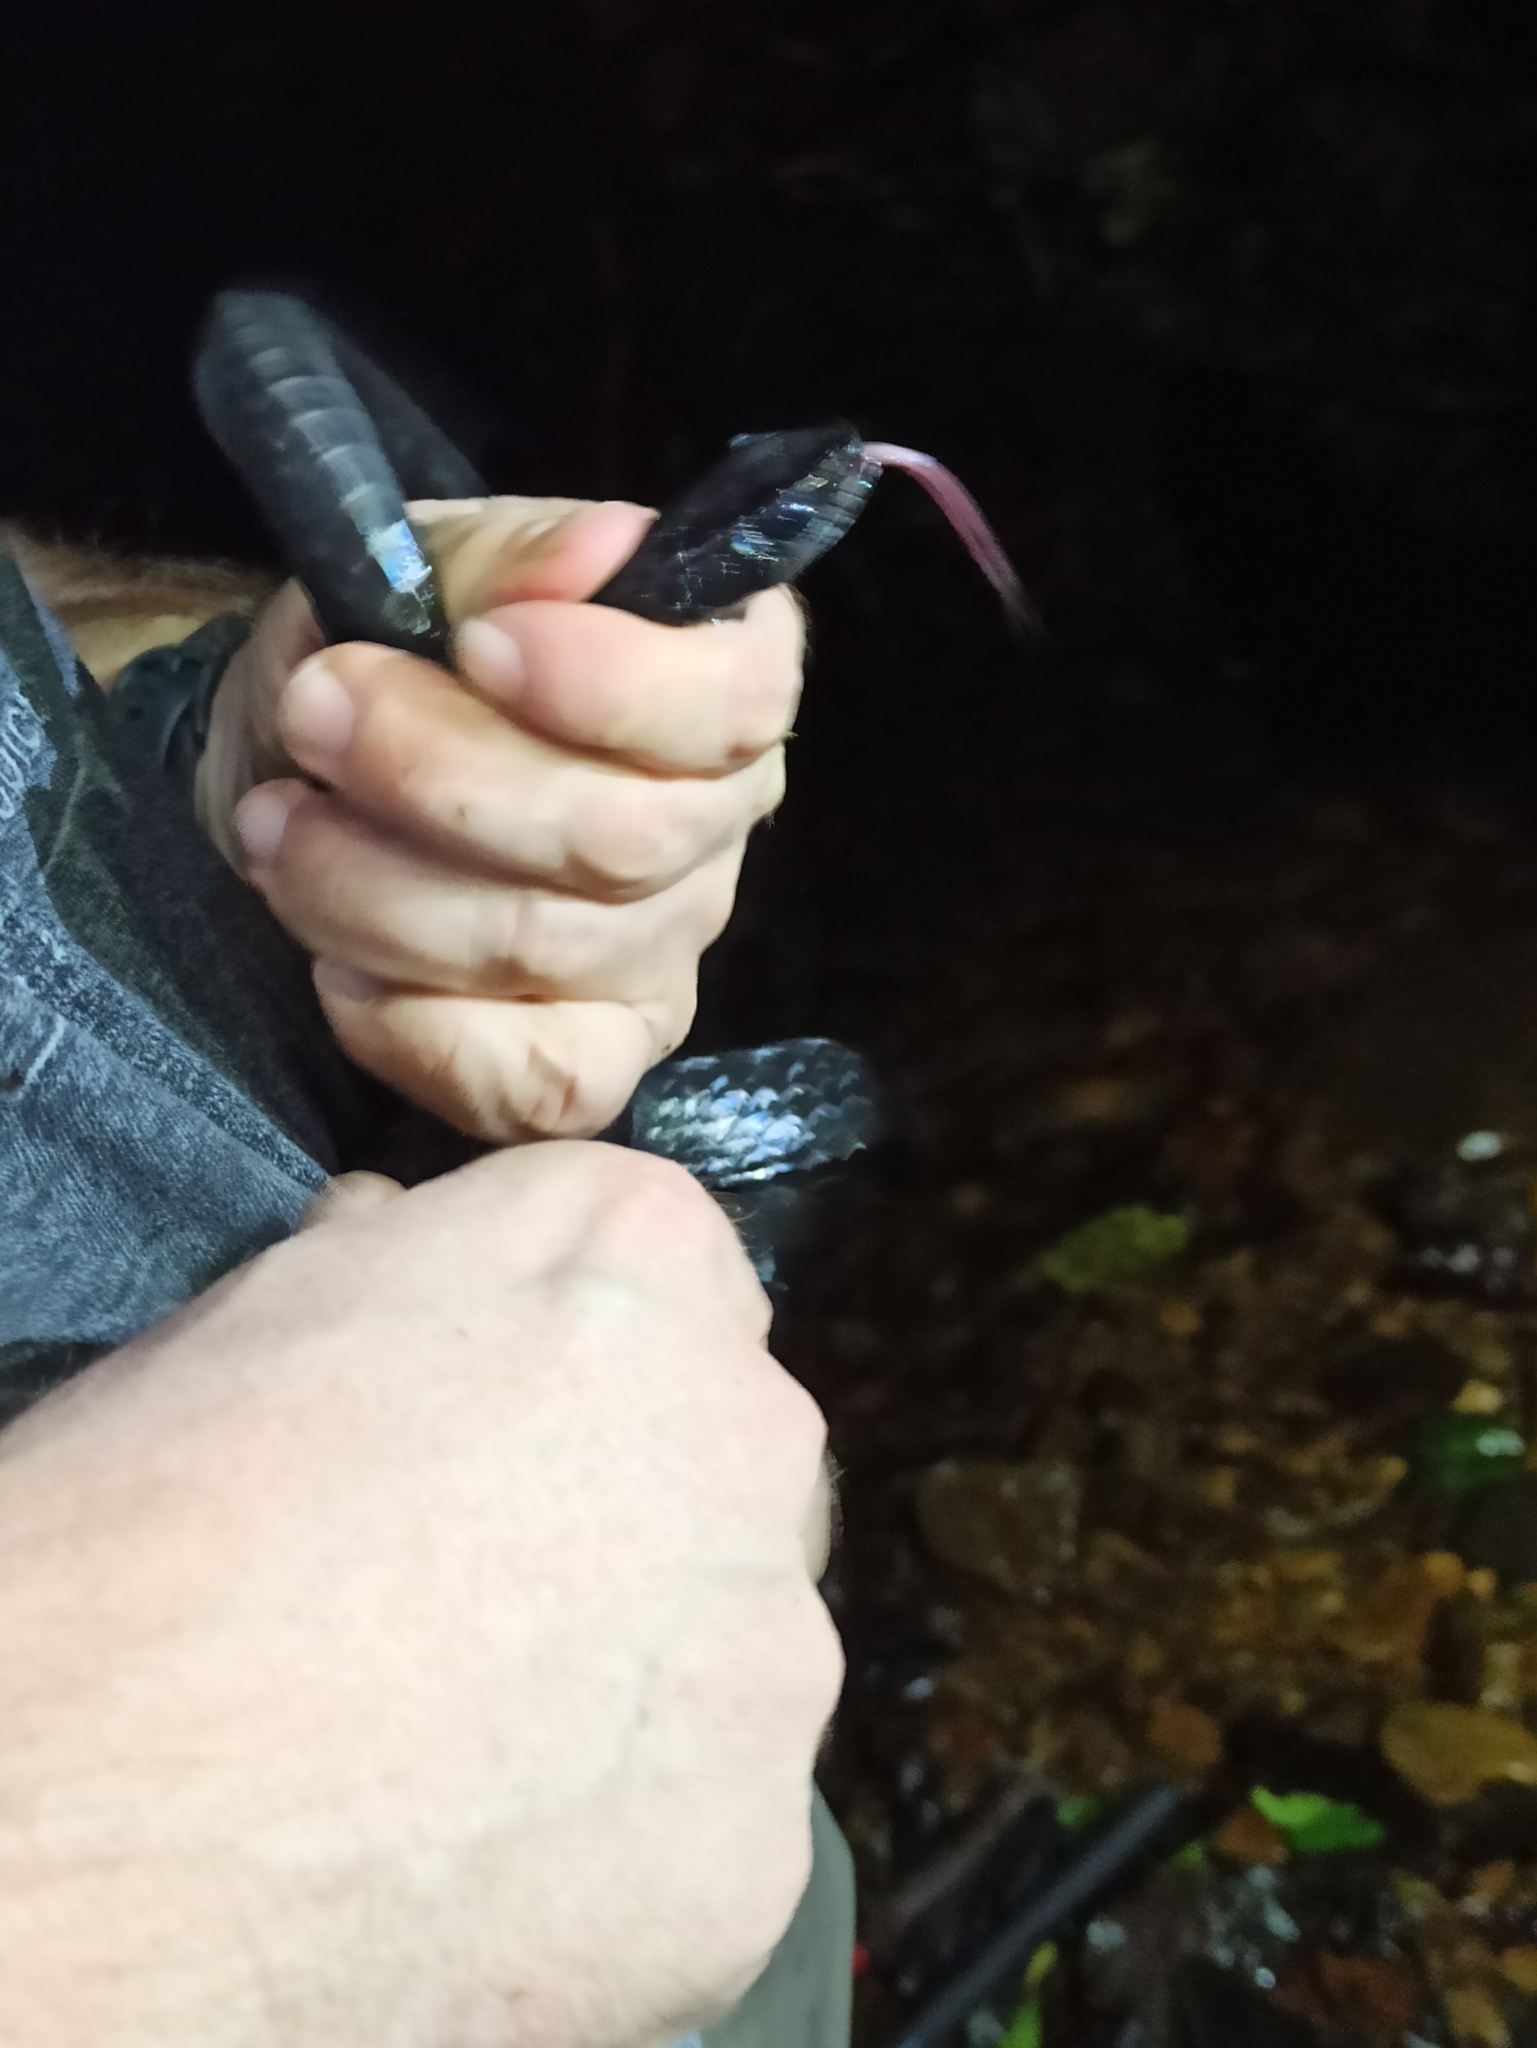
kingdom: Animalia
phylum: Chordata
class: Squamata
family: Colubridae
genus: Chironius
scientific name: Chironius grandisquamis
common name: Ecuador sipo
